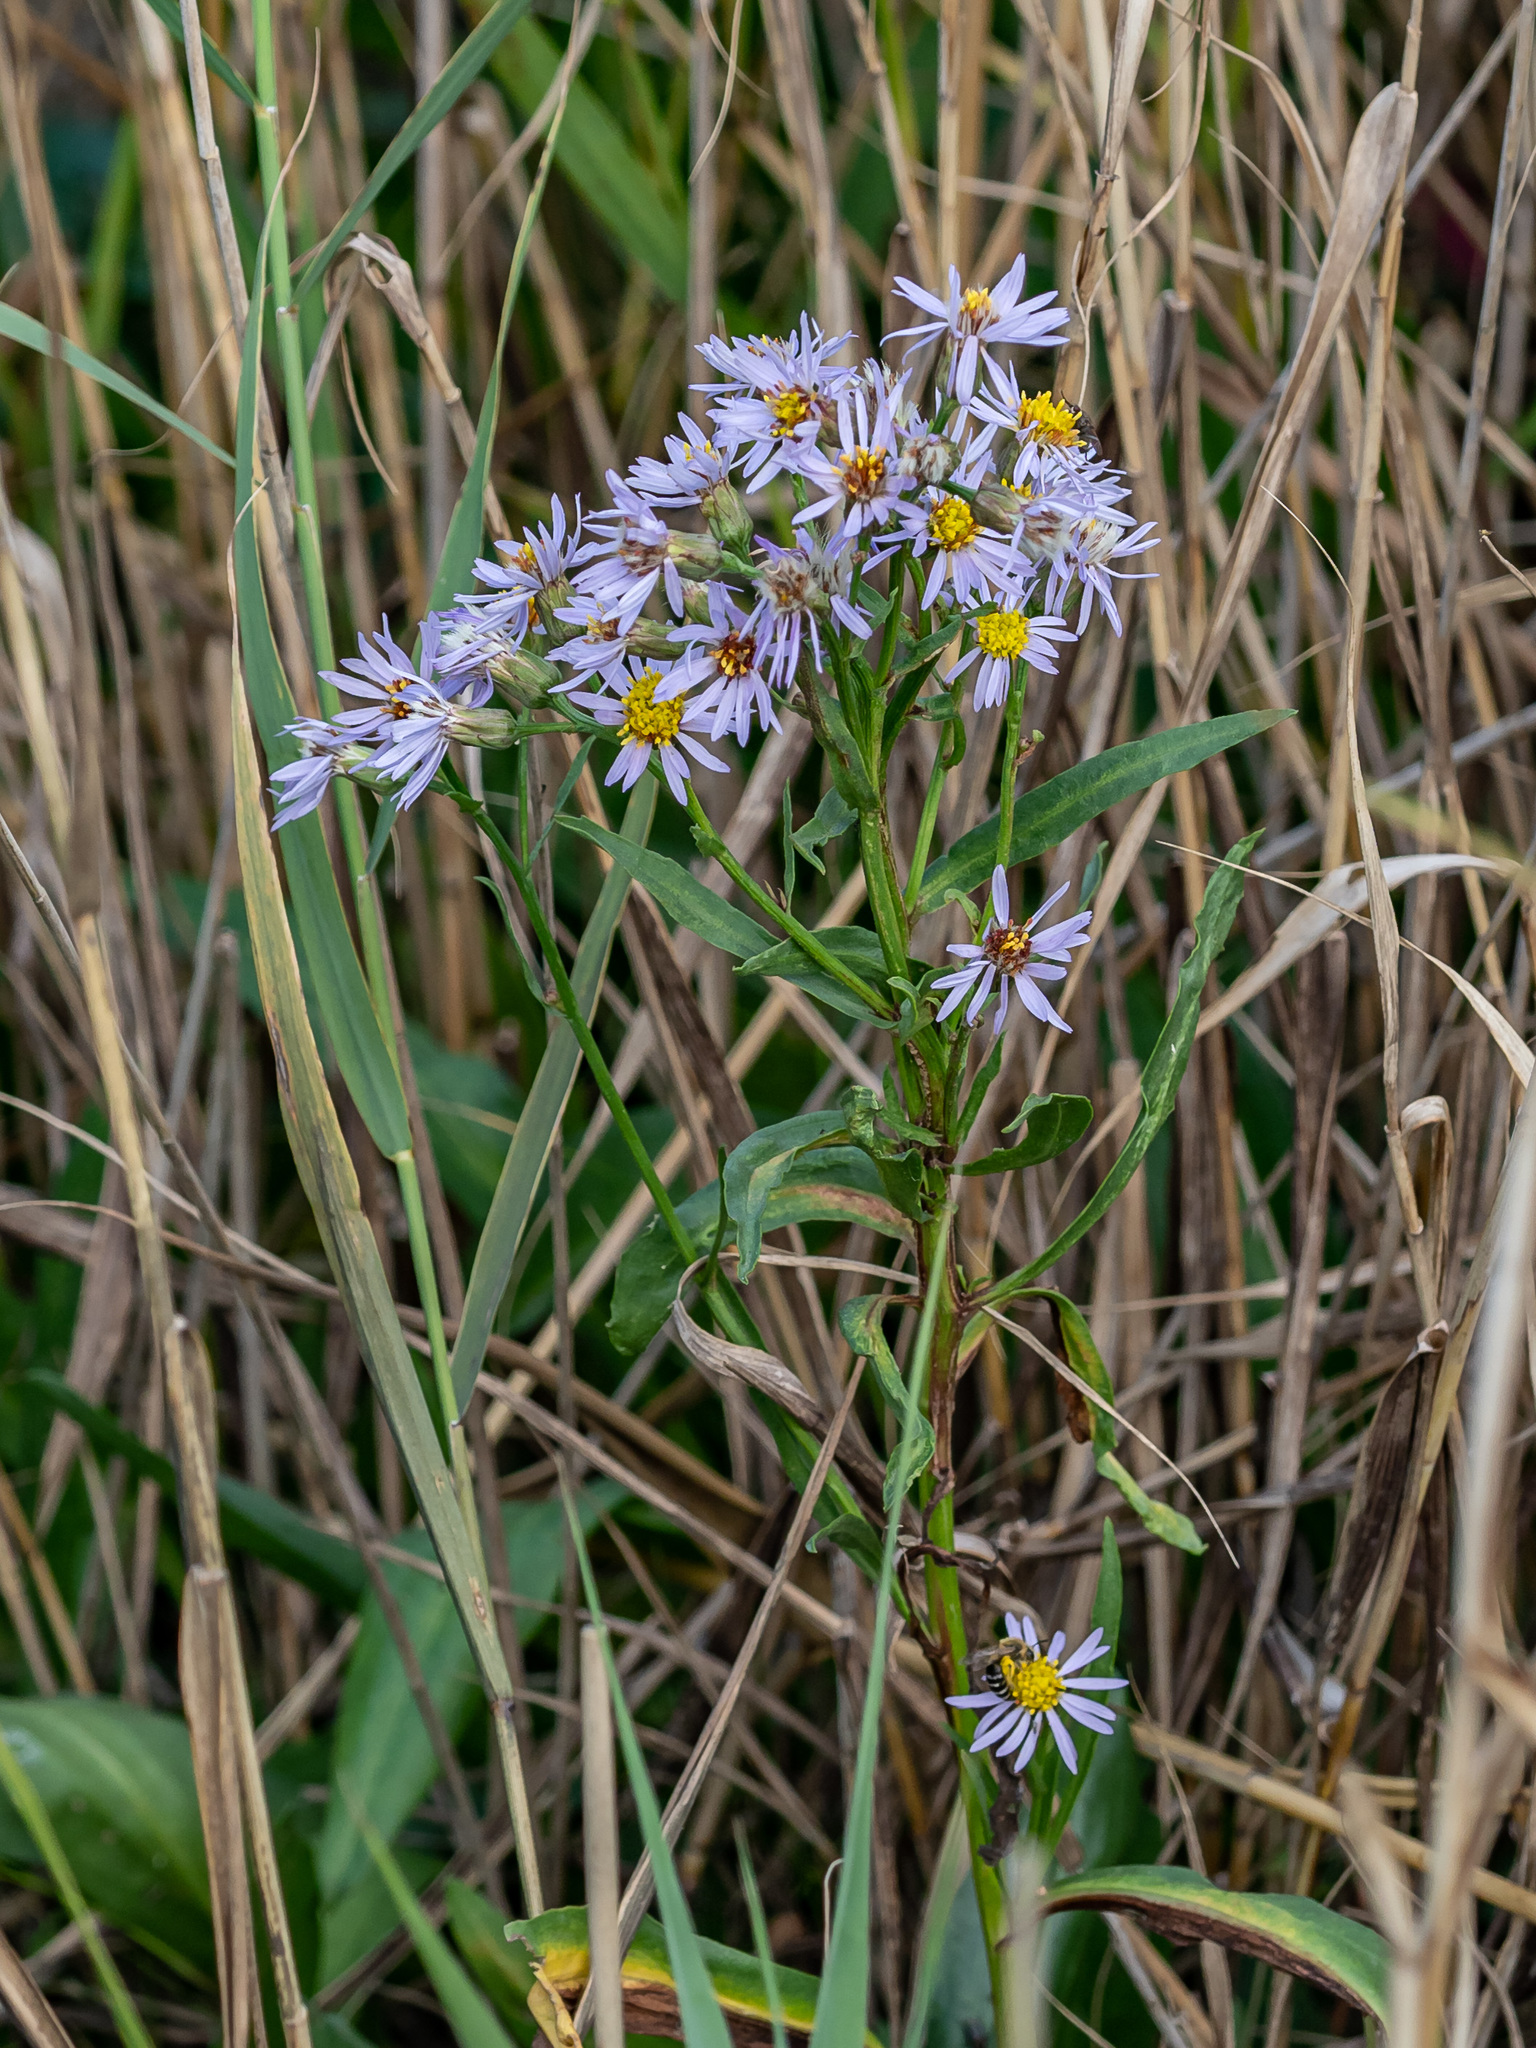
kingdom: Plantae
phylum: Tracheophyta
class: Magnoliopsida
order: Asterales
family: Asteraceae
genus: Tripolium
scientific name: Tripolium pannonicum
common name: Sea aster
